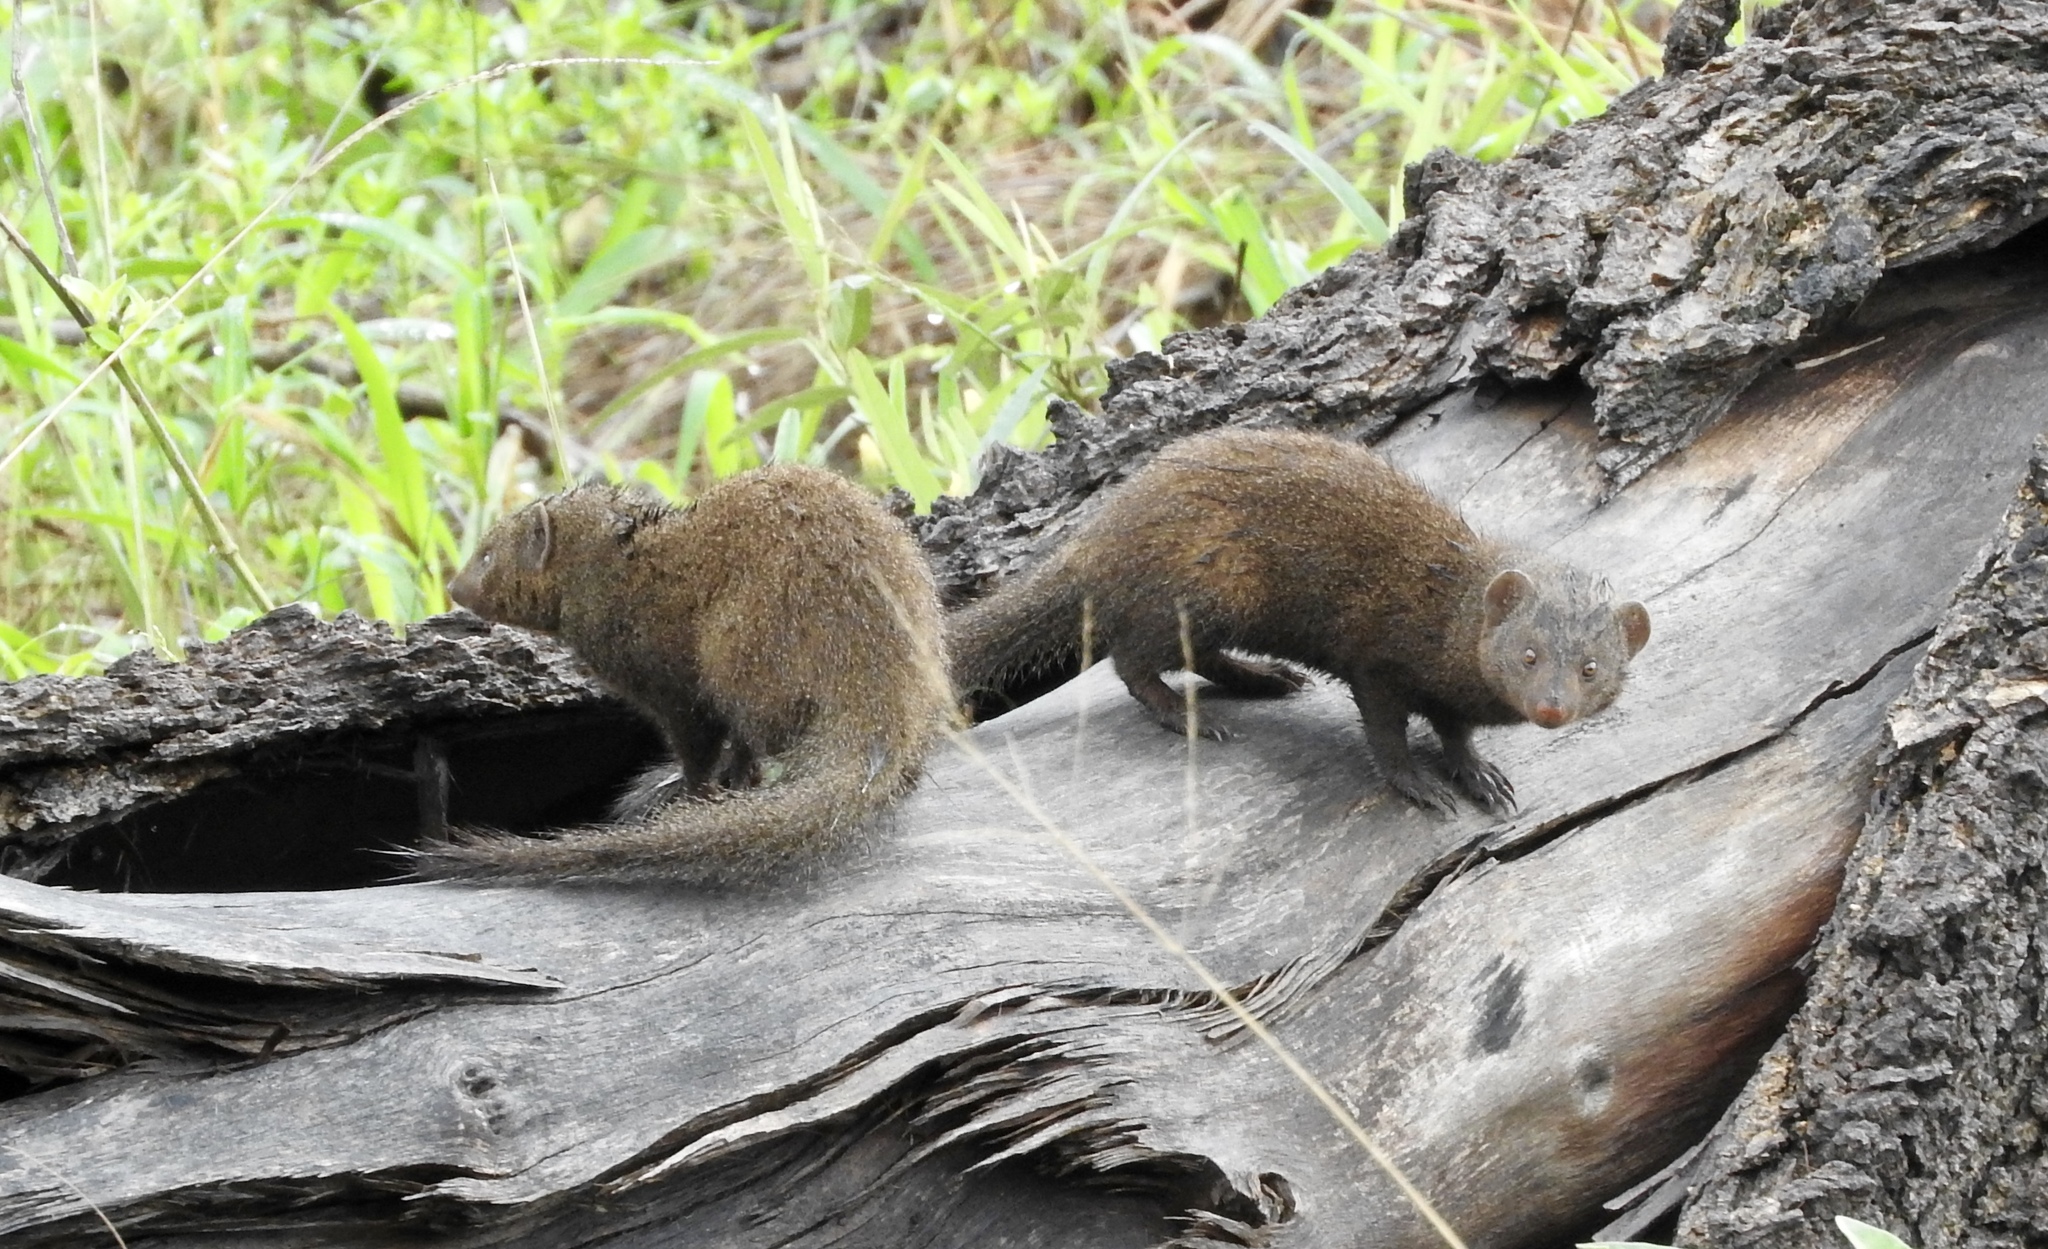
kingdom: Animalia
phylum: Chordata
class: Mammalia
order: Carnivora
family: Herpestidae
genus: Helogale
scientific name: Helogale parvula
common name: Common dwarf mongoose
